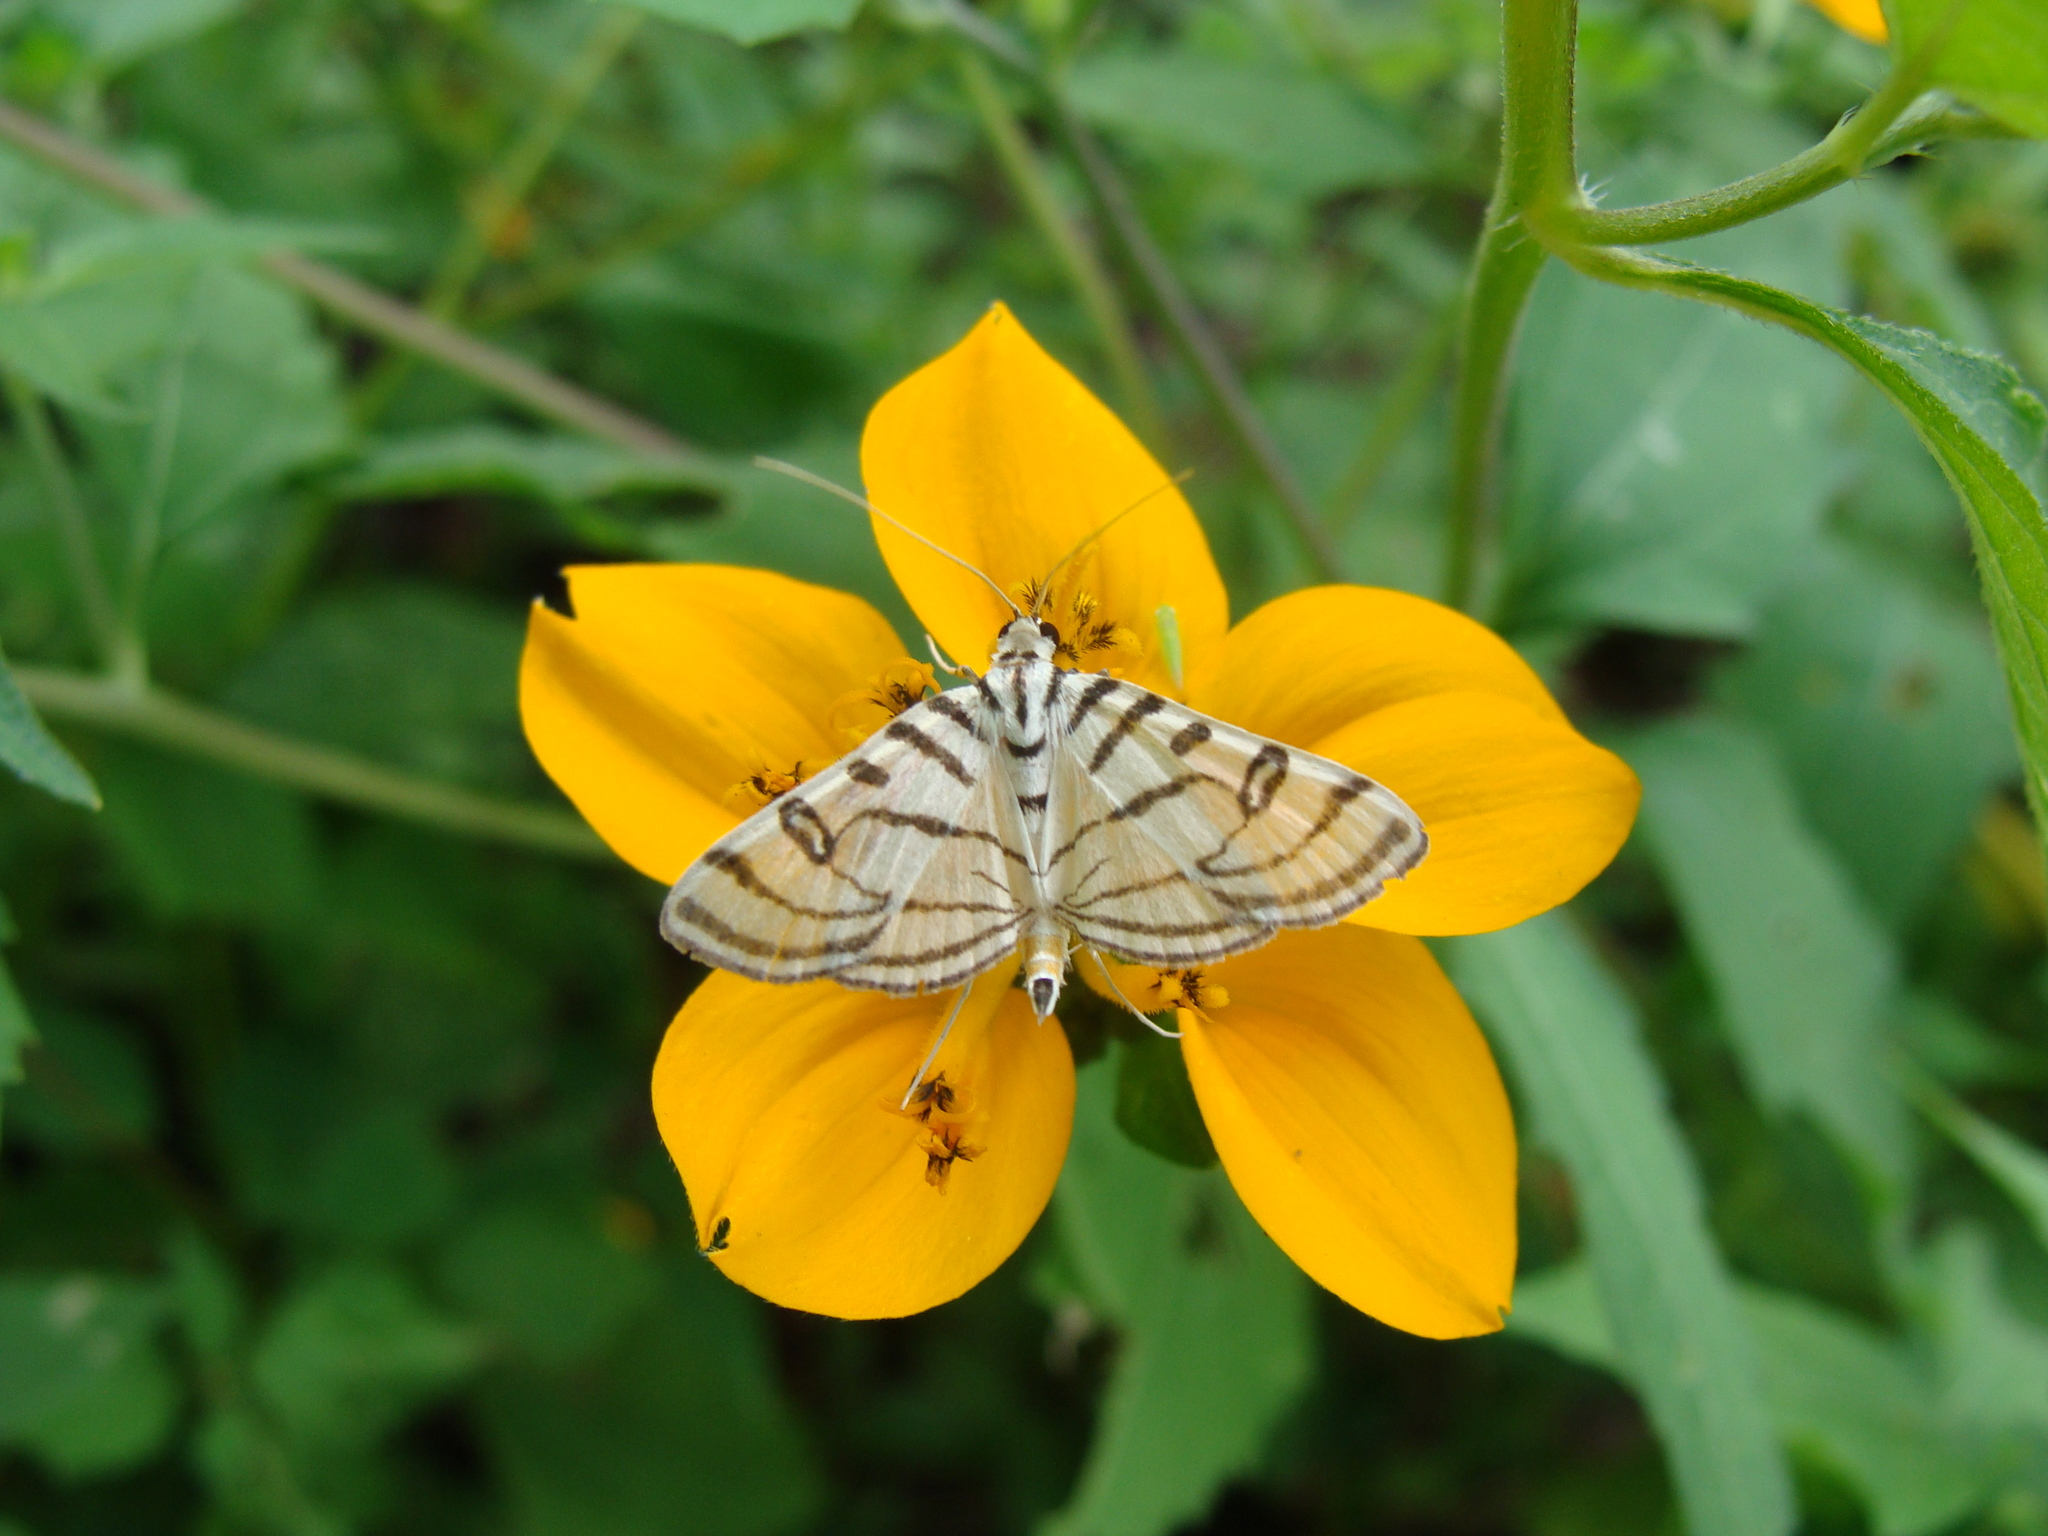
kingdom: Animalia
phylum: Arthropoda
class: Insecta
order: Lepidoptera
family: Crambidae
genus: Conchylodes
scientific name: Conchylodes ovulalis
